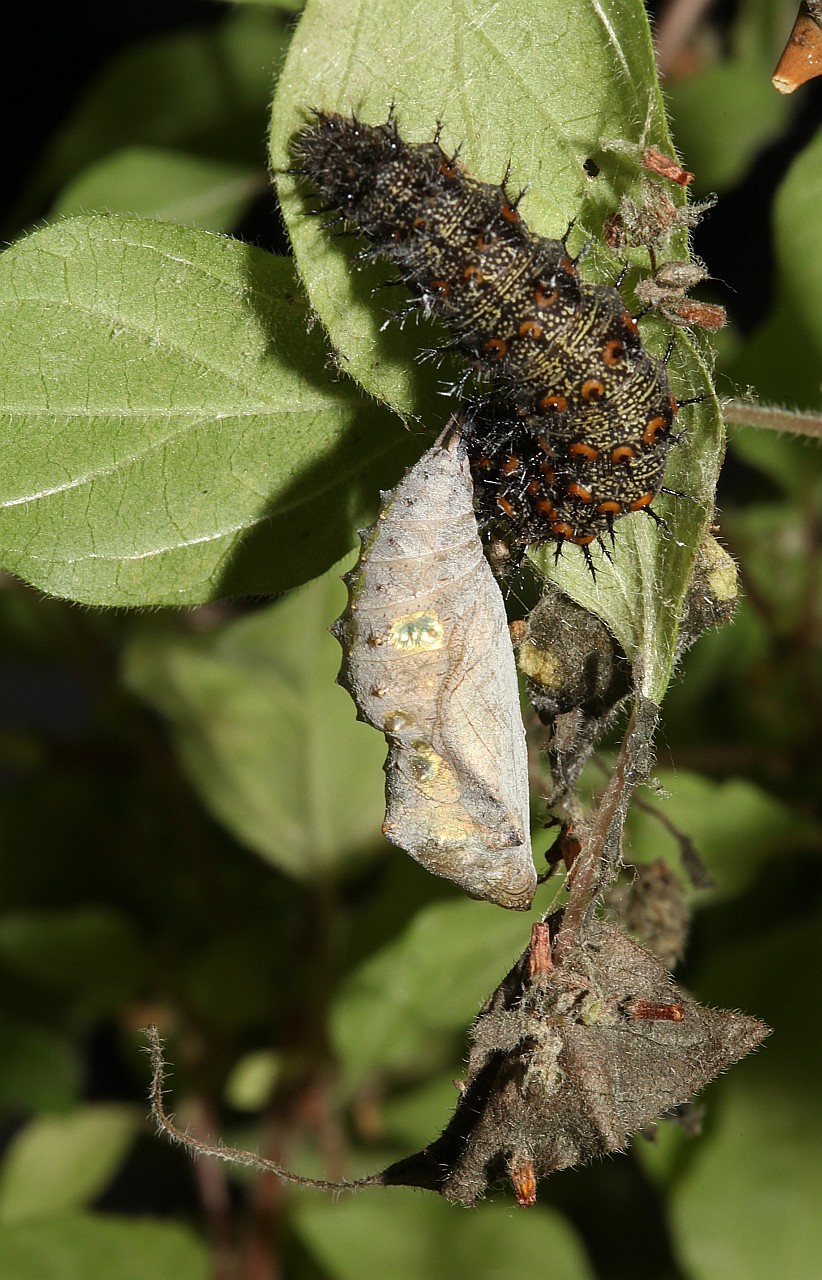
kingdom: Animalia
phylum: Arthropoda
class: Insecta
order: Lepidoptera
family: Nymphalidae
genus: Vanessa
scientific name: Vanessa atalanta
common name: Red admiral
